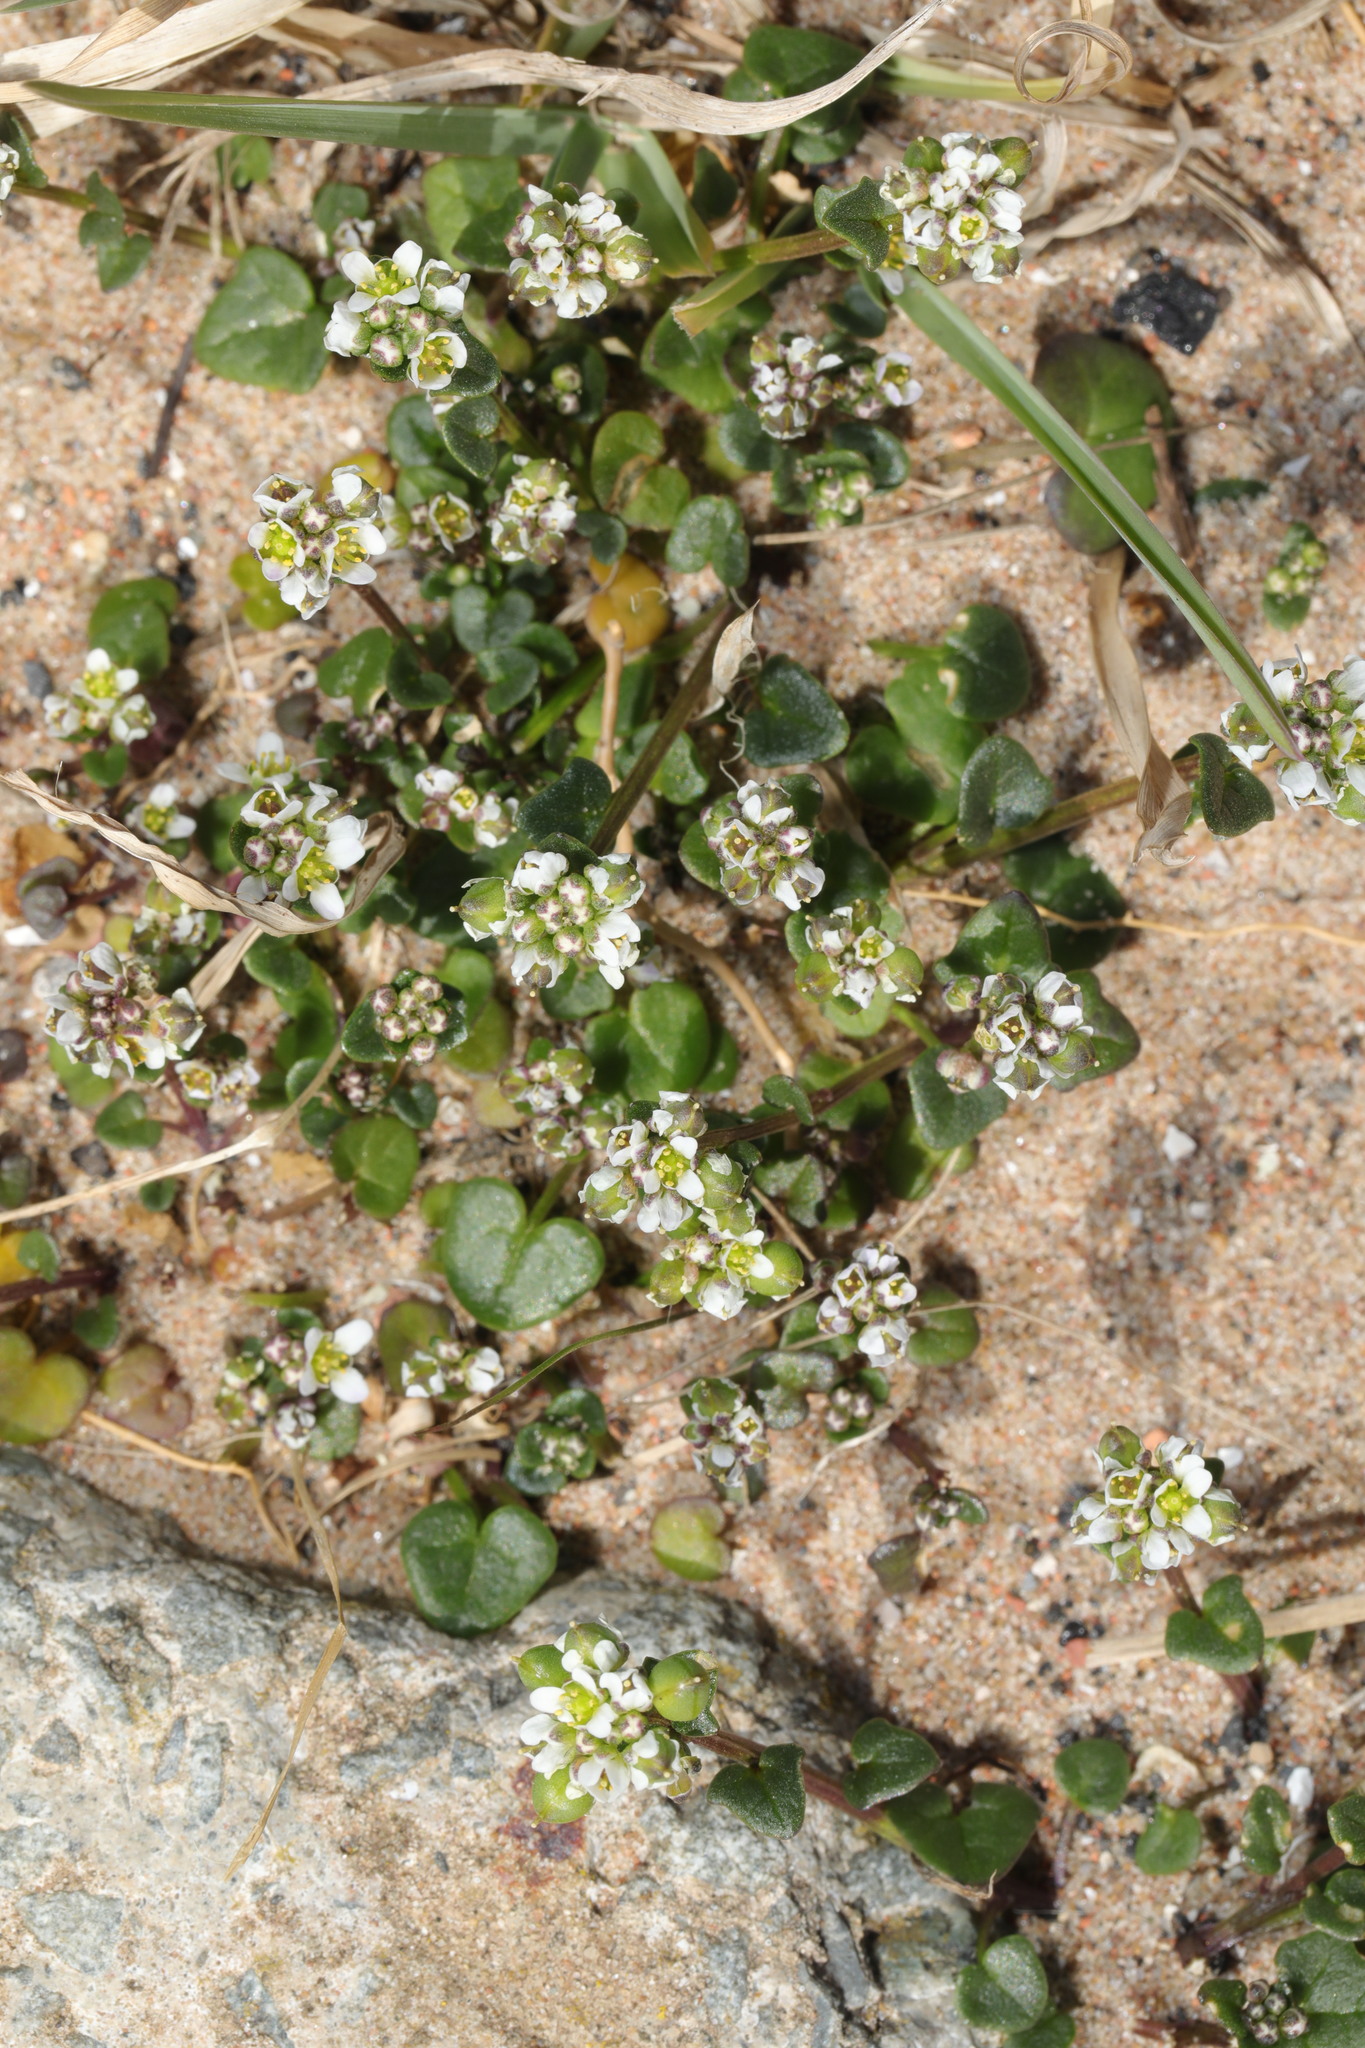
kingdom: Plantae
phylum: Tracheophyta
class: Magnoliopsida
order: Brassicales
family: Brassicaceae
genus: Cochlearia
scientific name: Cochlearia danica
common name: Early scurvygrass
